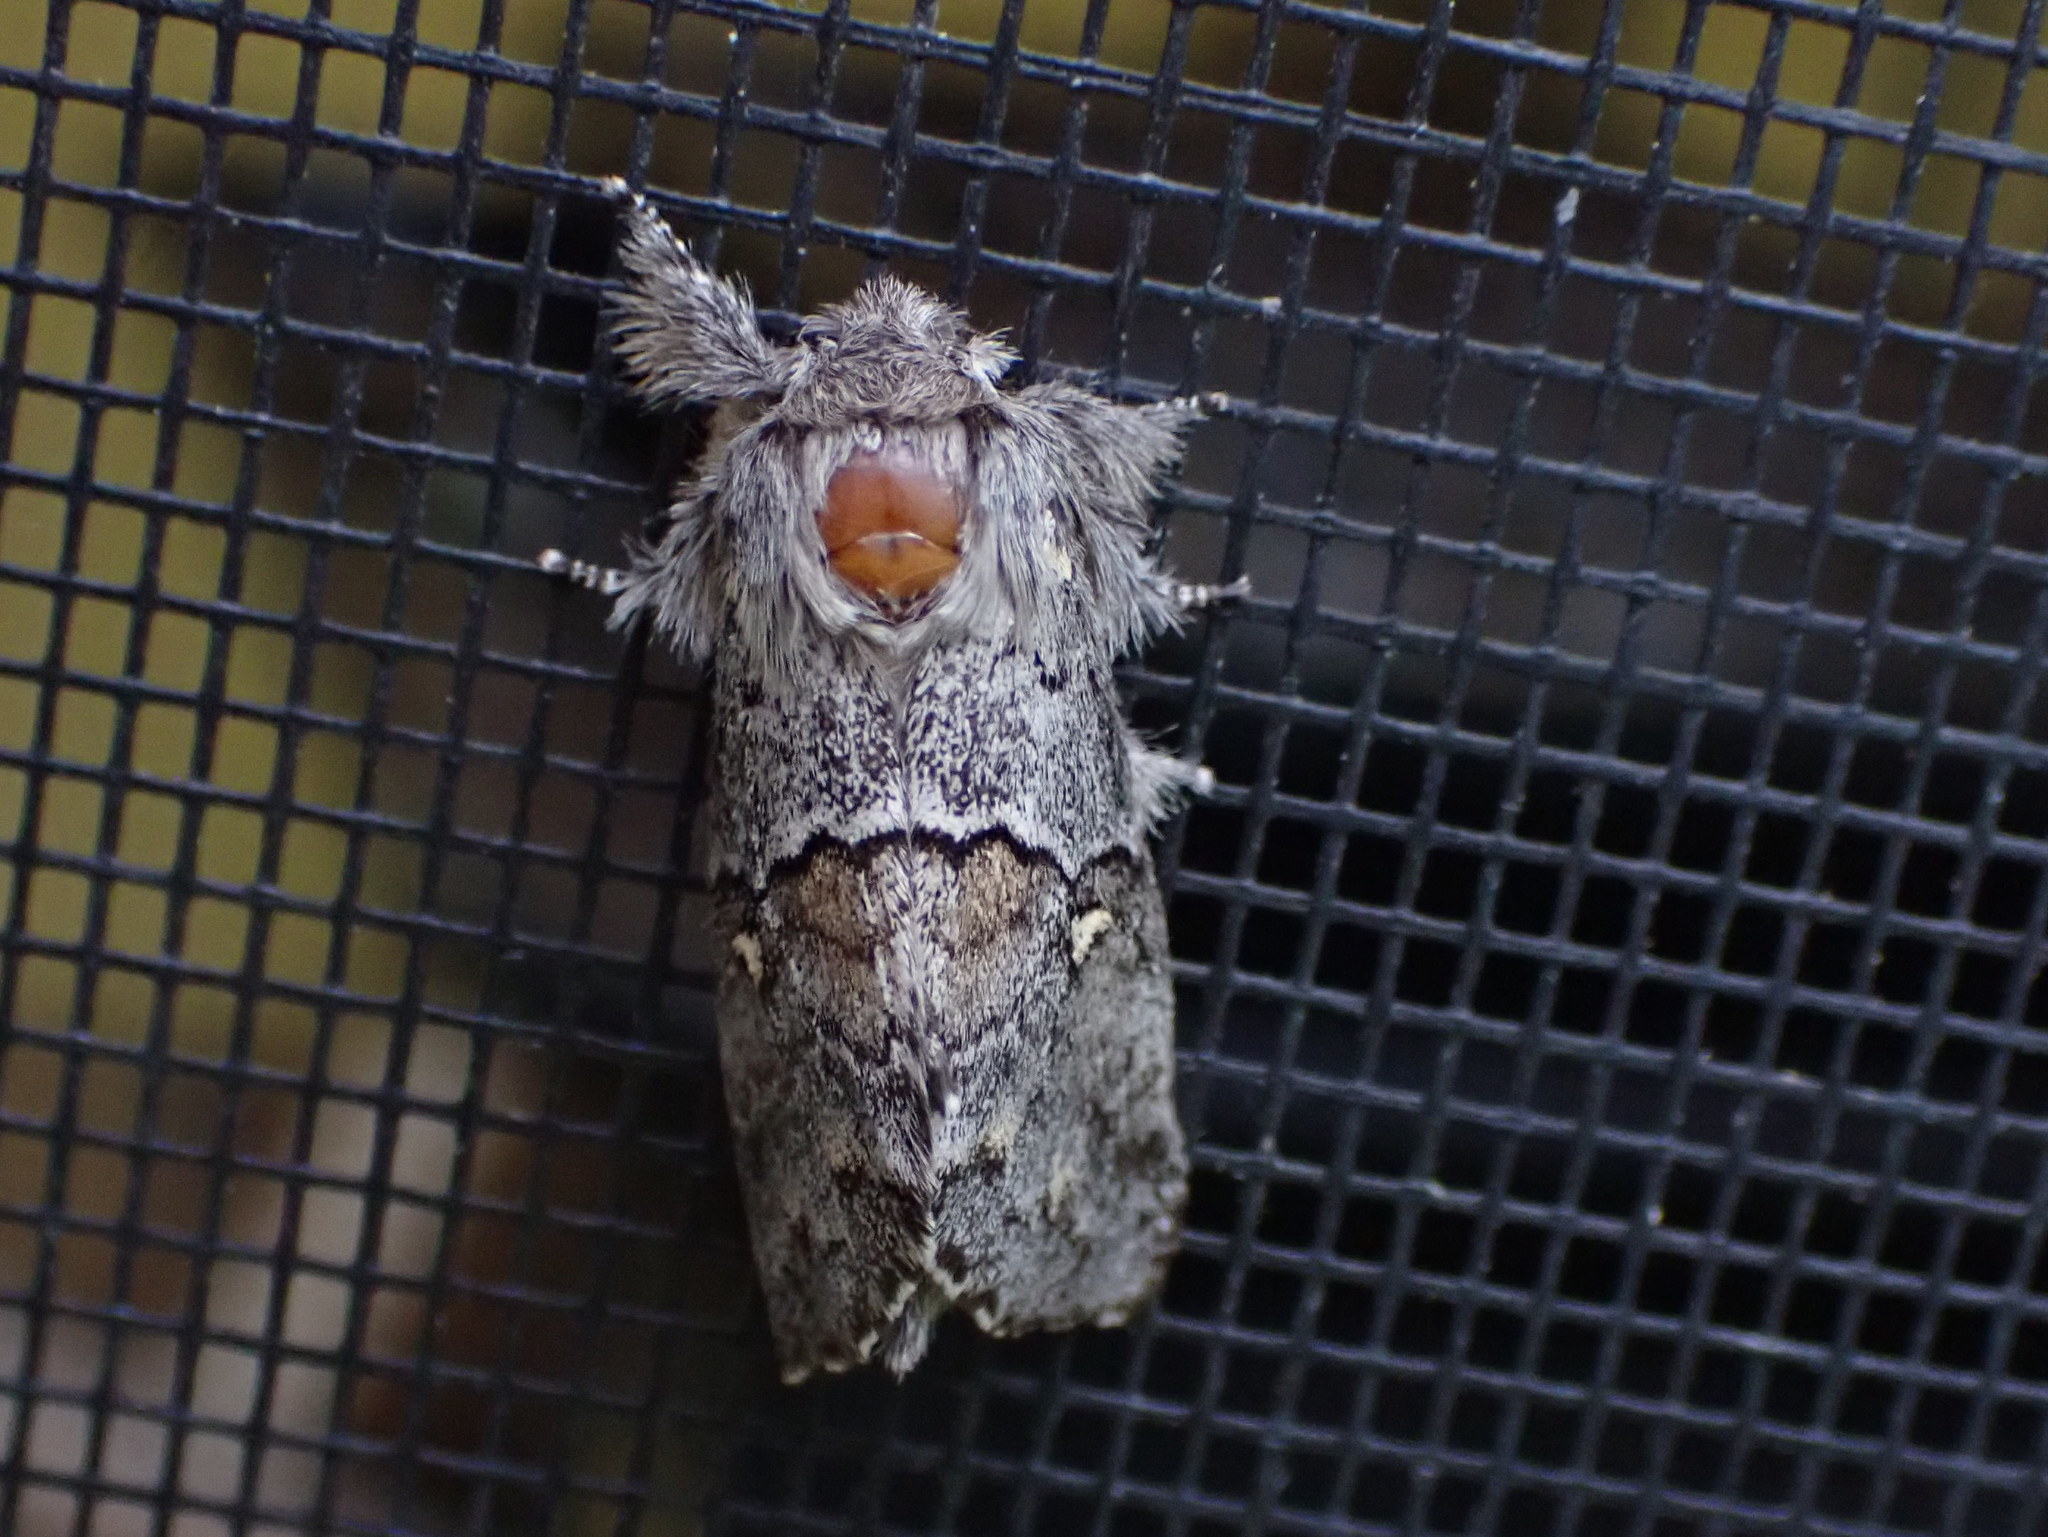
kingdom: Animalia
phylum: Arthropoda
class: Insecta
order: Lepidoptera
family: Notodontidae
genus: Gluphisia
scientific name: Gluphisia avimacula
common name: Four-spotted gluphisia moth
